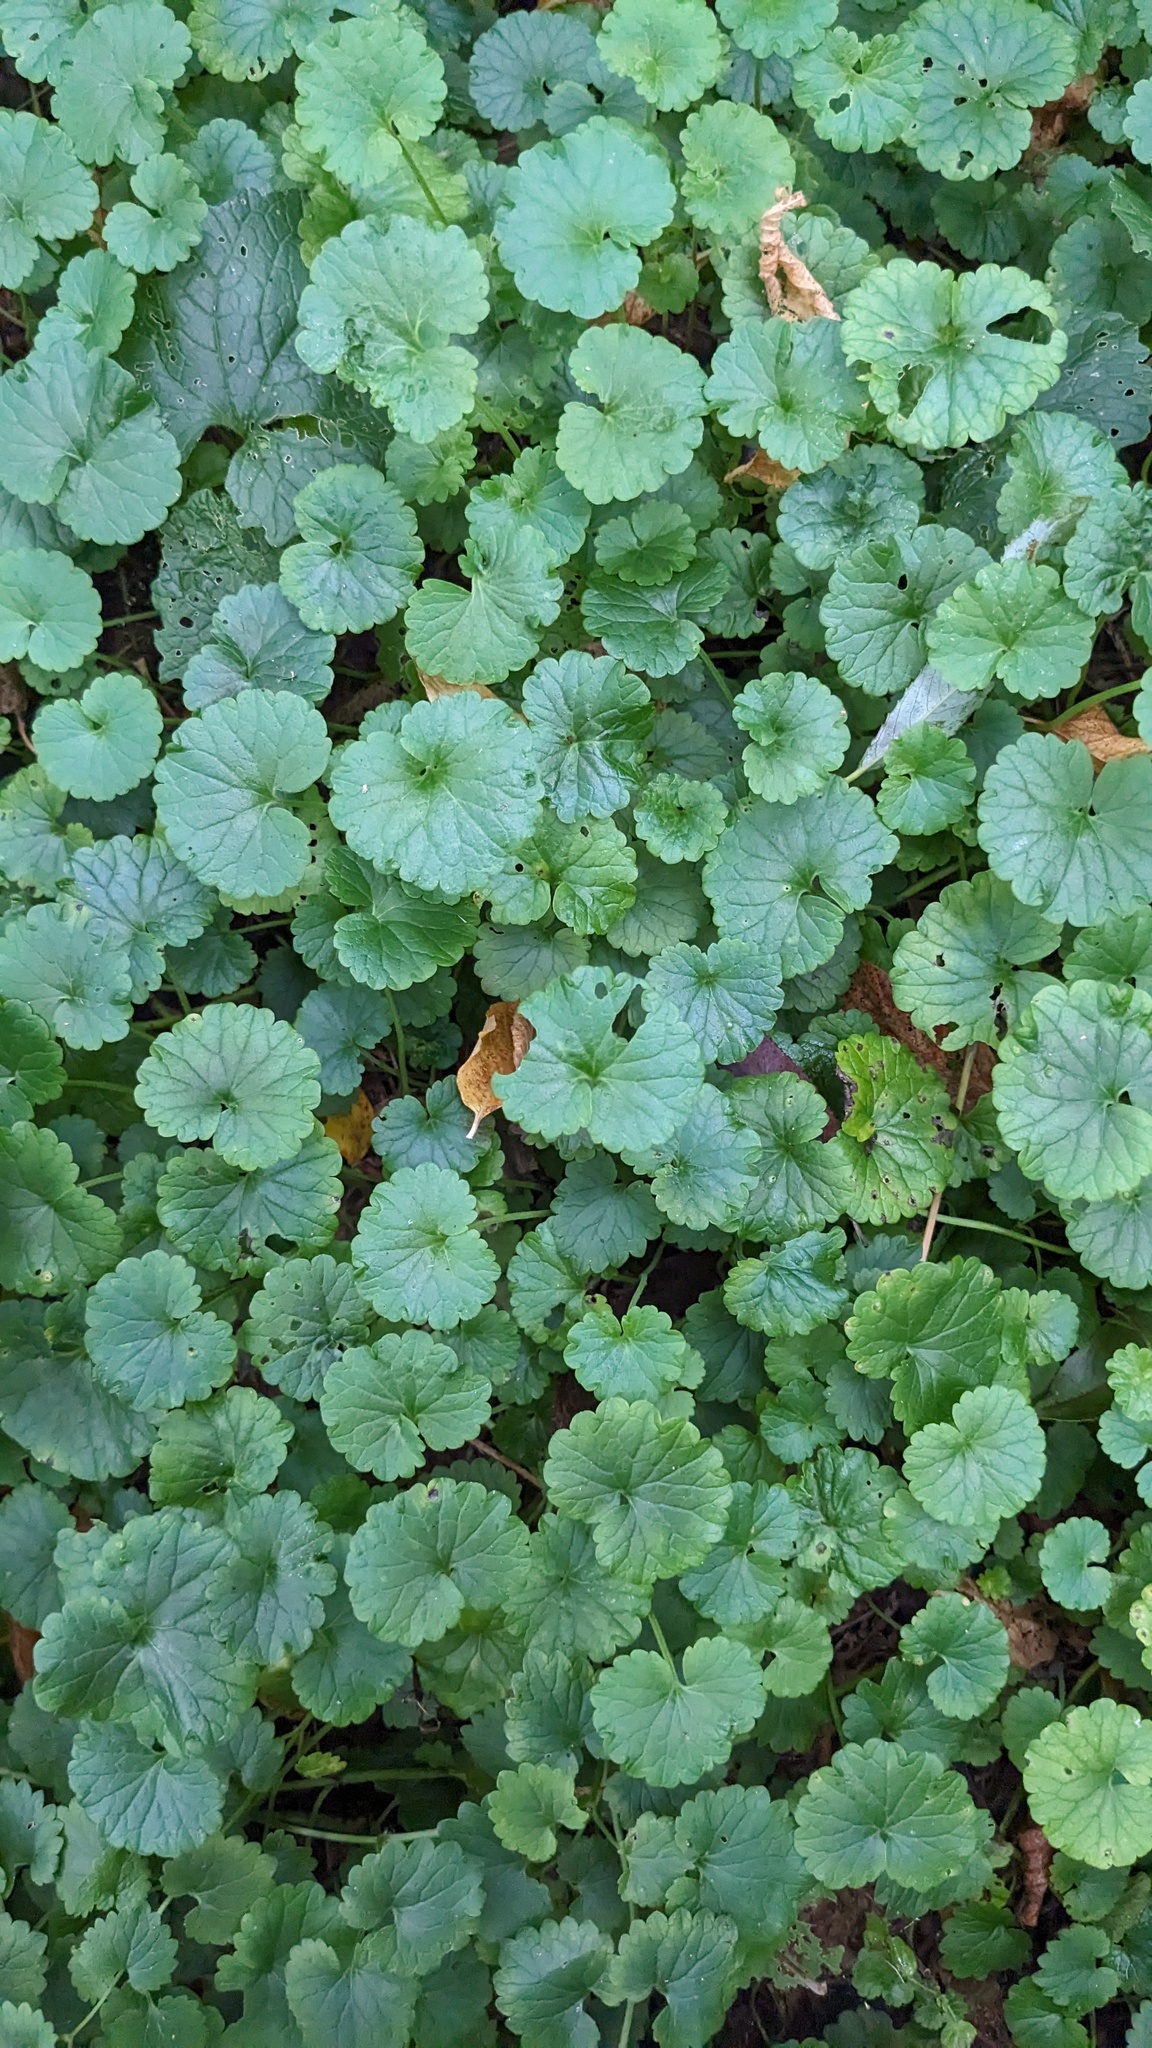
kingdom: Plantae
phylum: Tracheophyta
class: Magnoliopsida
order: Lamiales
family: Lamiaceae
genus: Glechoma
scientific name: Glechoma hederacea
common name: Ground ivy
